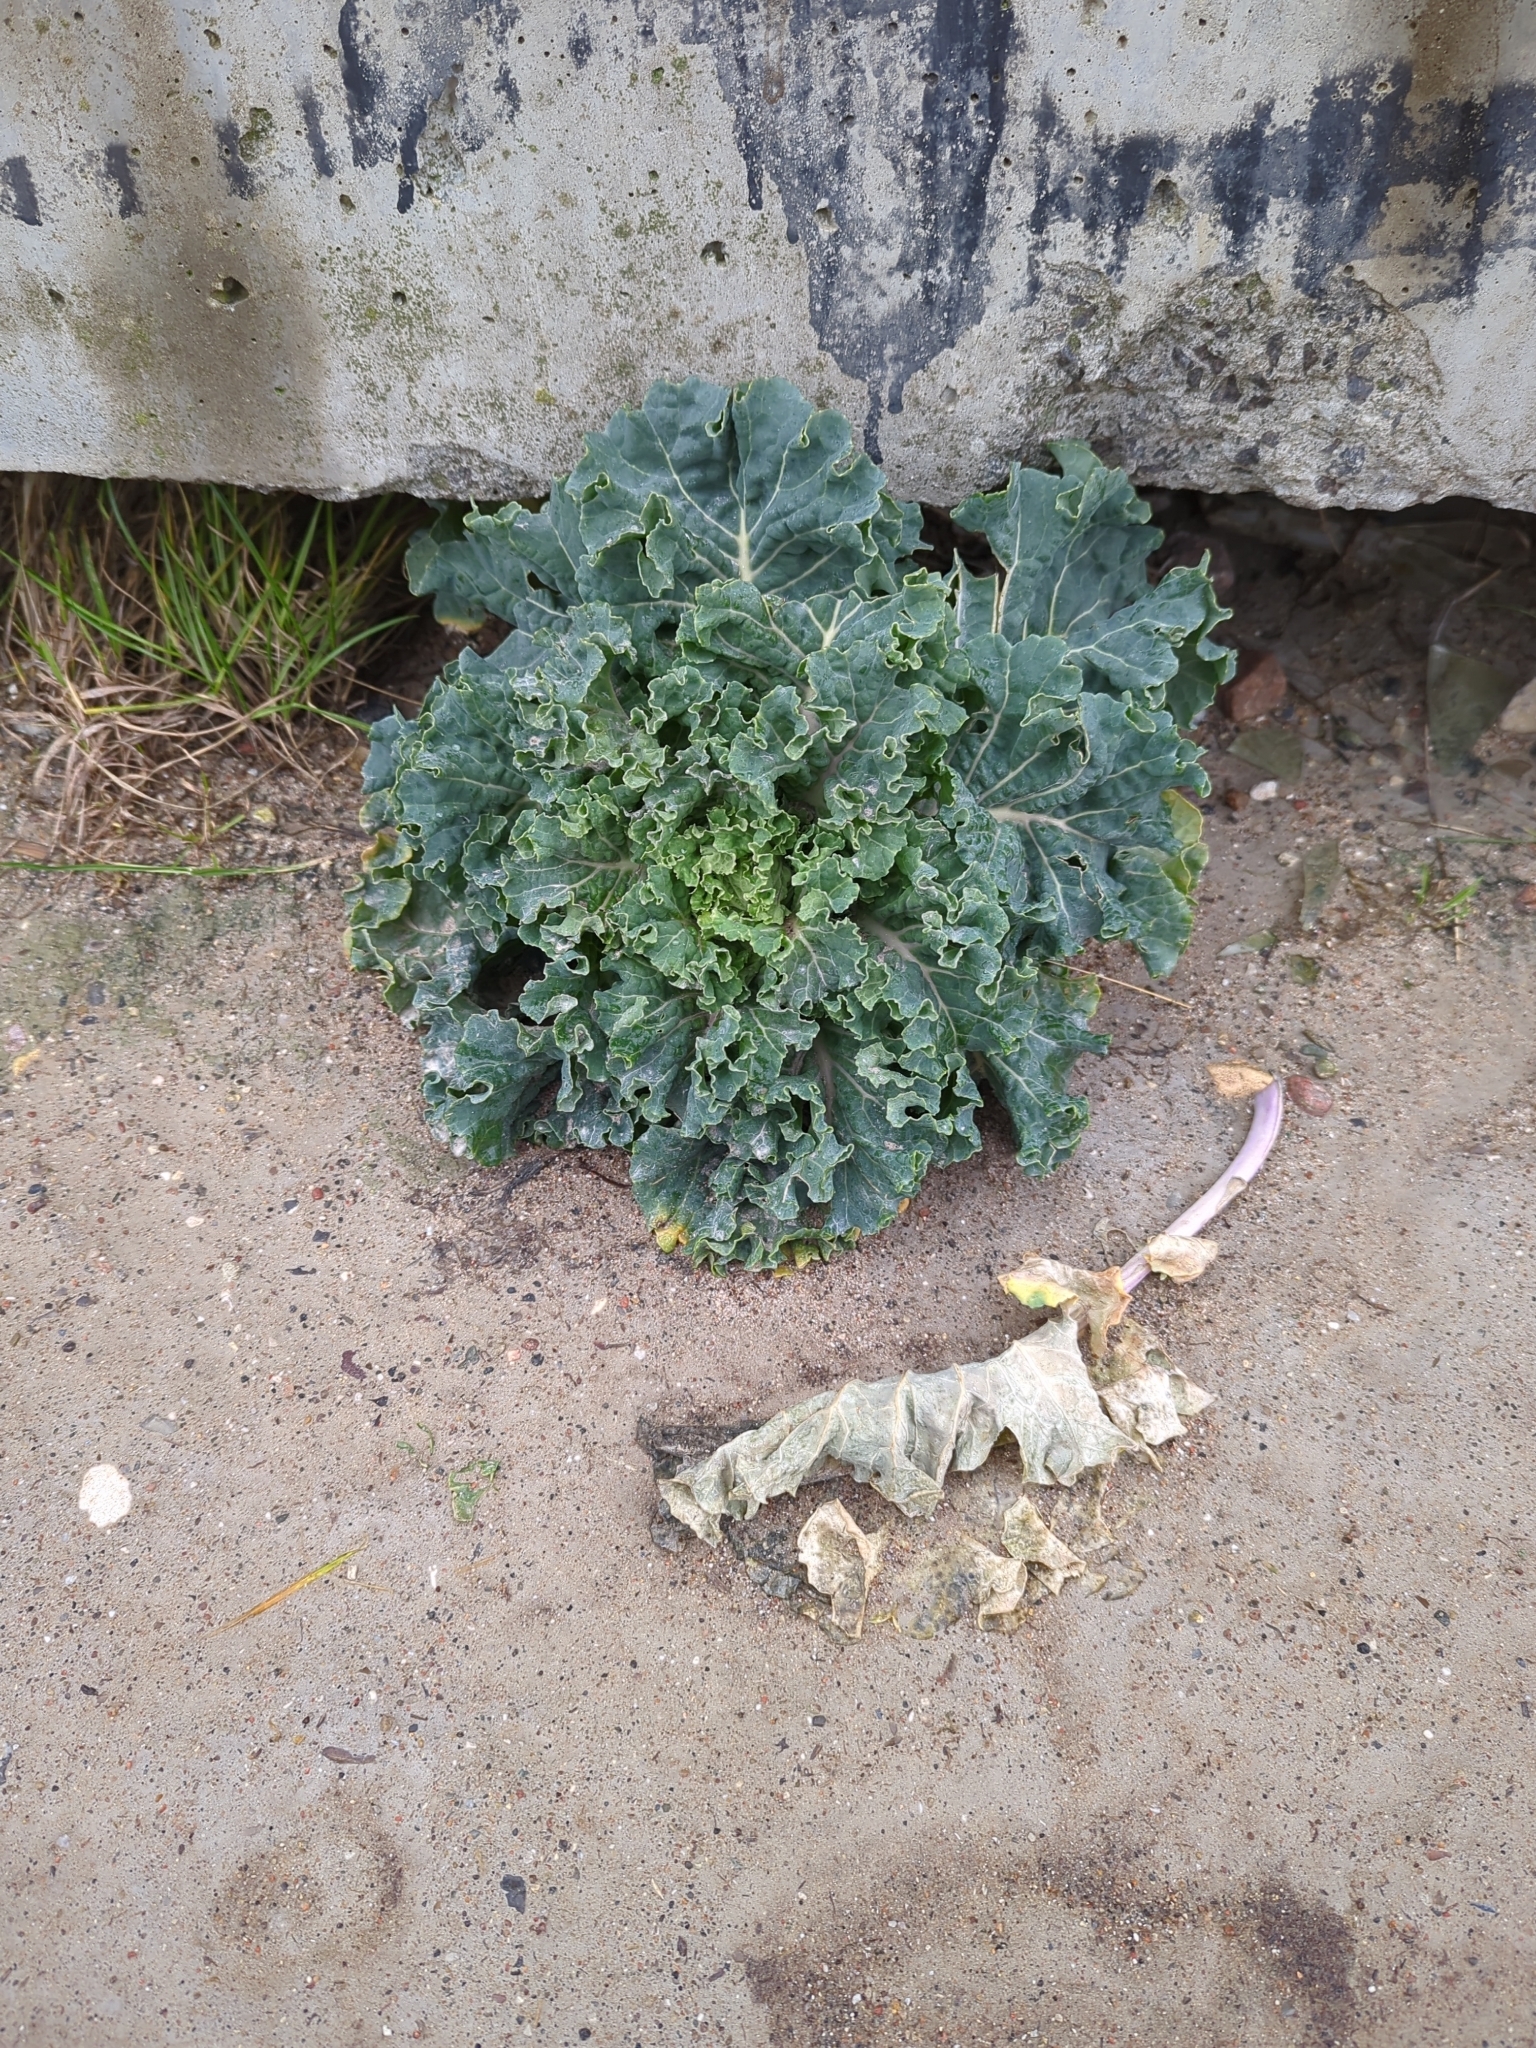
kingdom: Plantae
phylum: Tracheophyta
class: Magnoliopsida
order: Brassicales
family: Brassicaceae
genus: Crambe
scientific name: Crambe maritima
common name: Sea-kale
